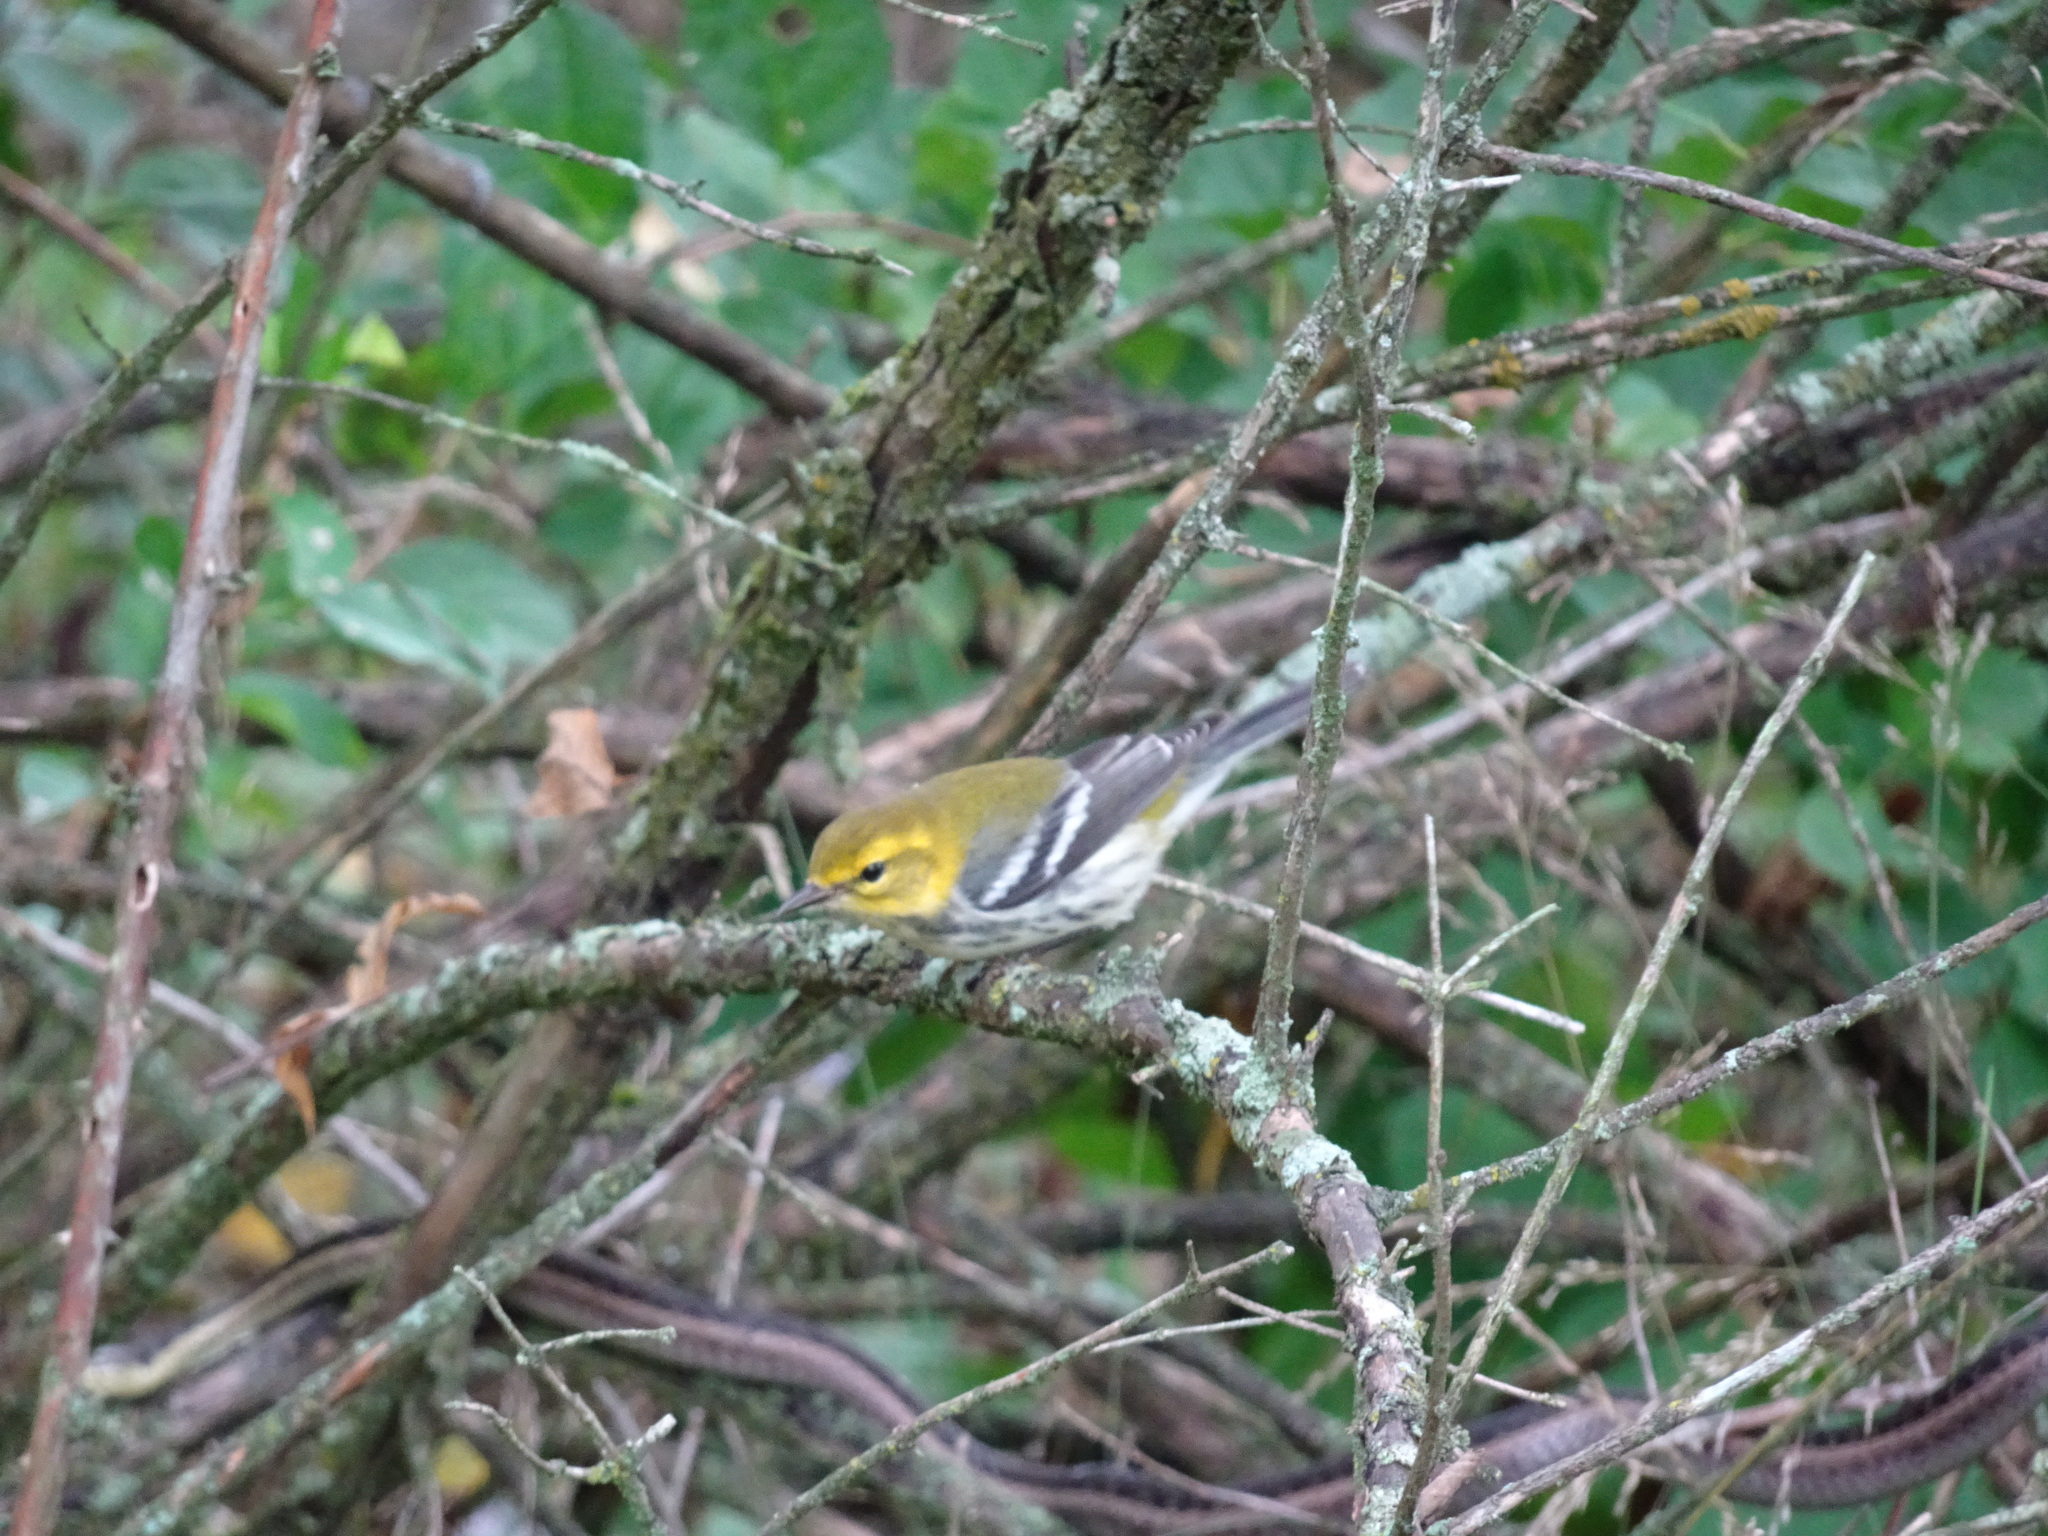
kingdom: Animalia
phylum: Chordata
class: Aves
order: Passeriformes
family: Parulidae
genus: Setophaga
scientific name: Setophaga virens
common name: Black-throated green warbler
